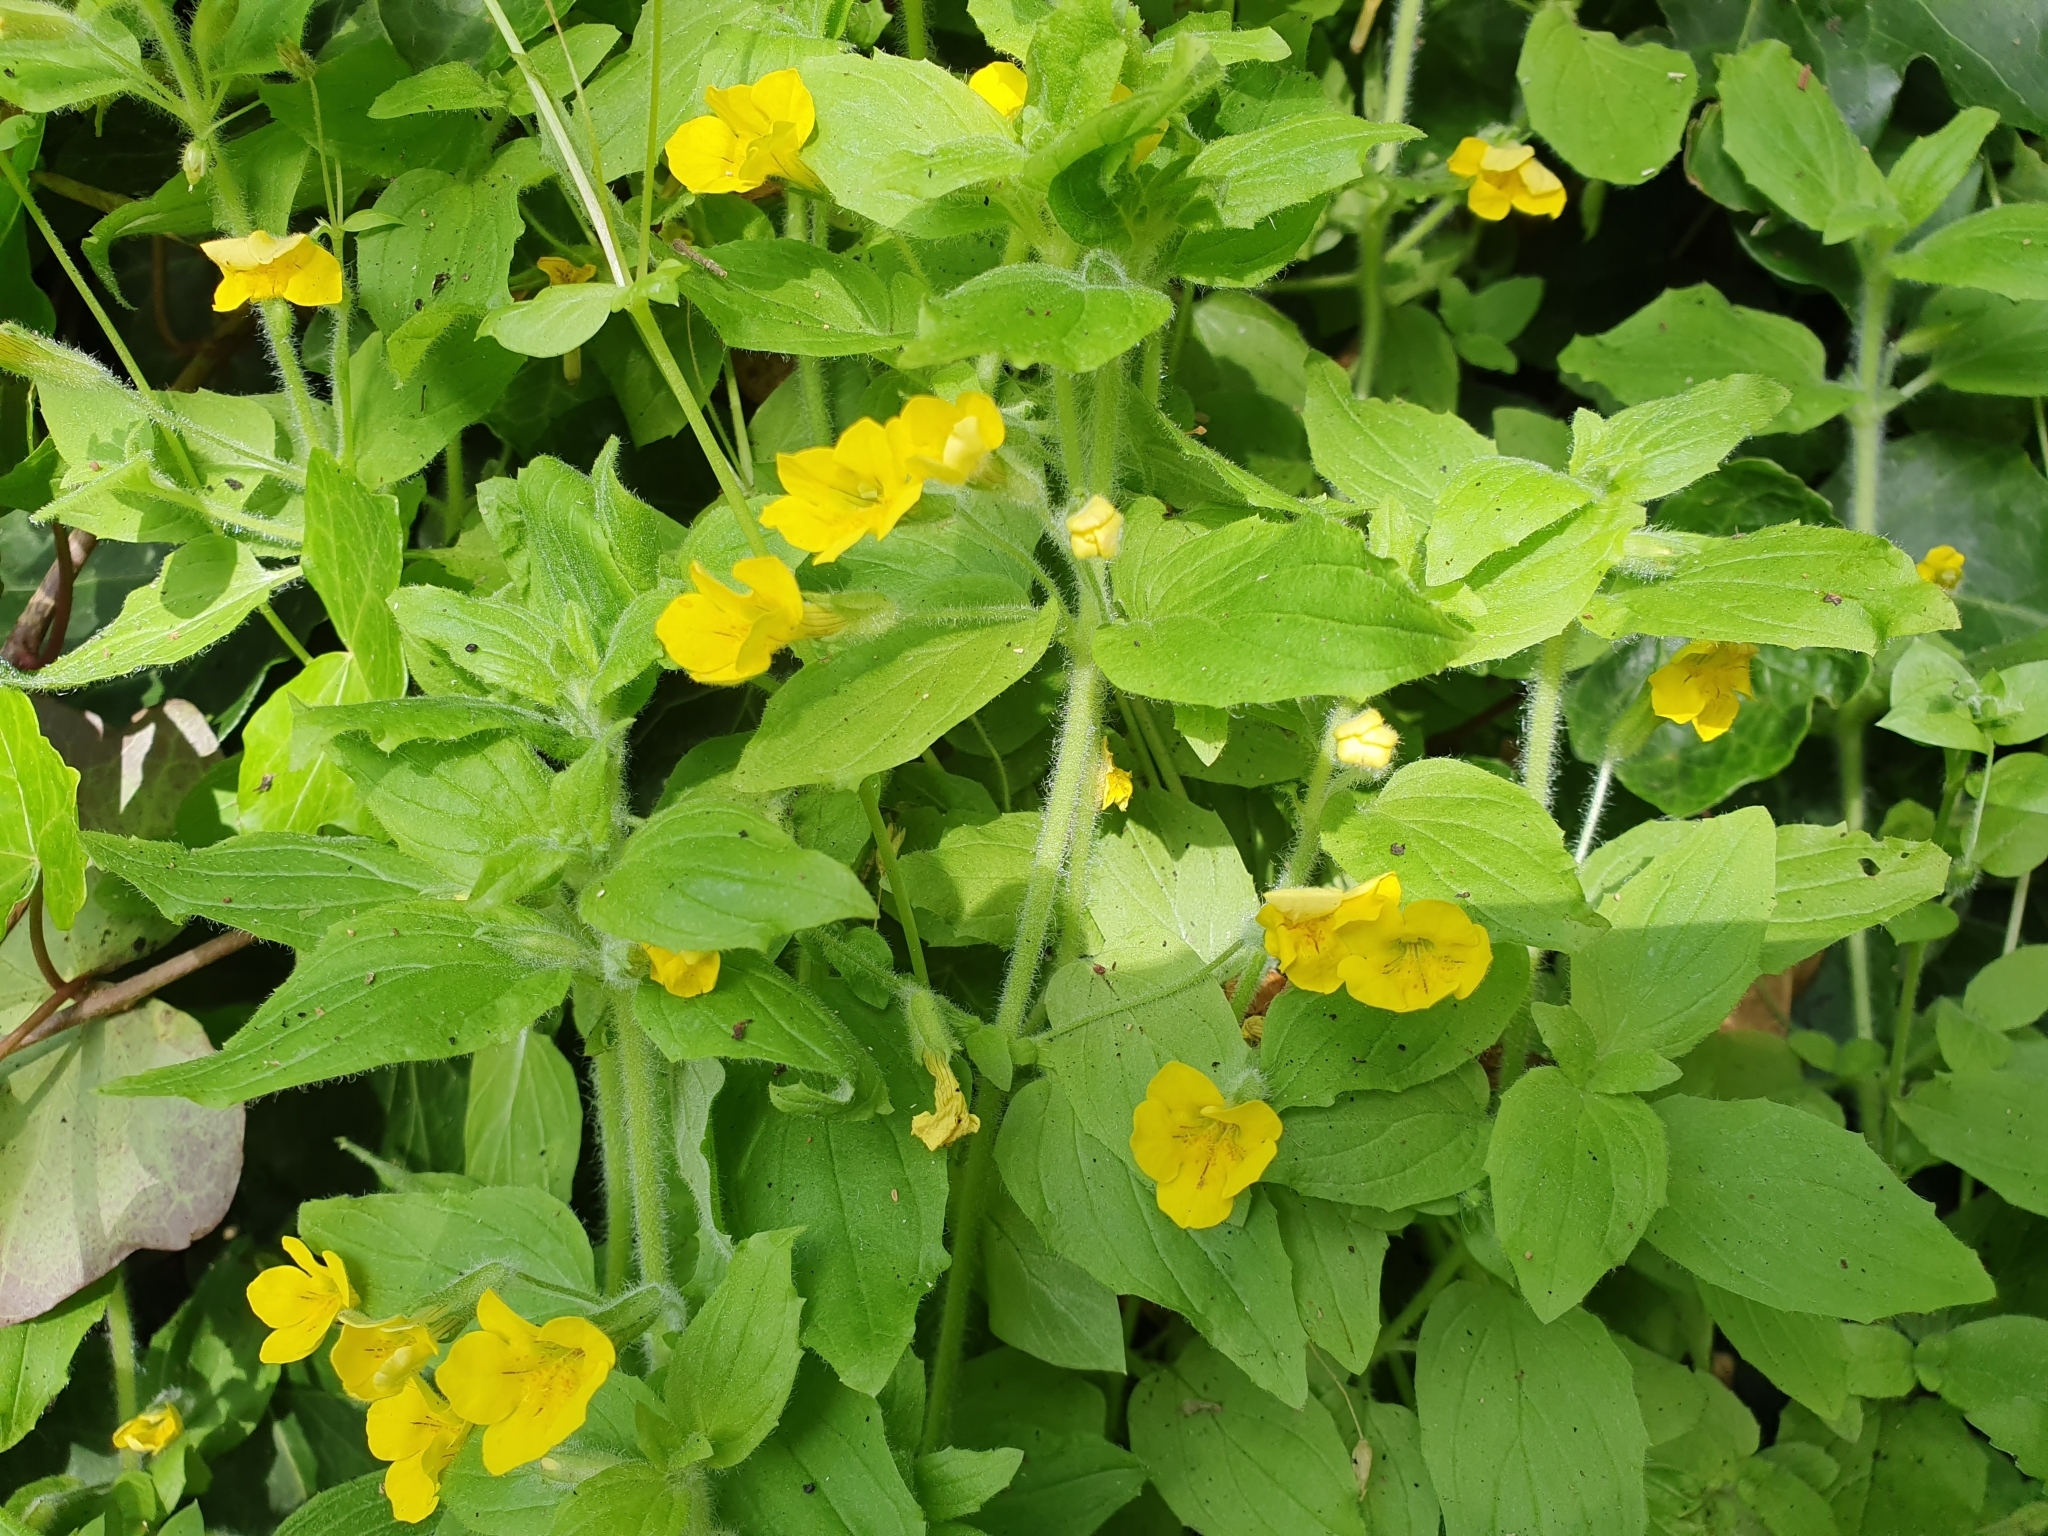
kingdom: Plantae
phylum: Tracheophyta
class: Magnoliopsida
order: Lamiales
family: Phrymaceae
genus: Erythranthe
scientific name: Erythranthe moschata
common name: Muskflower
